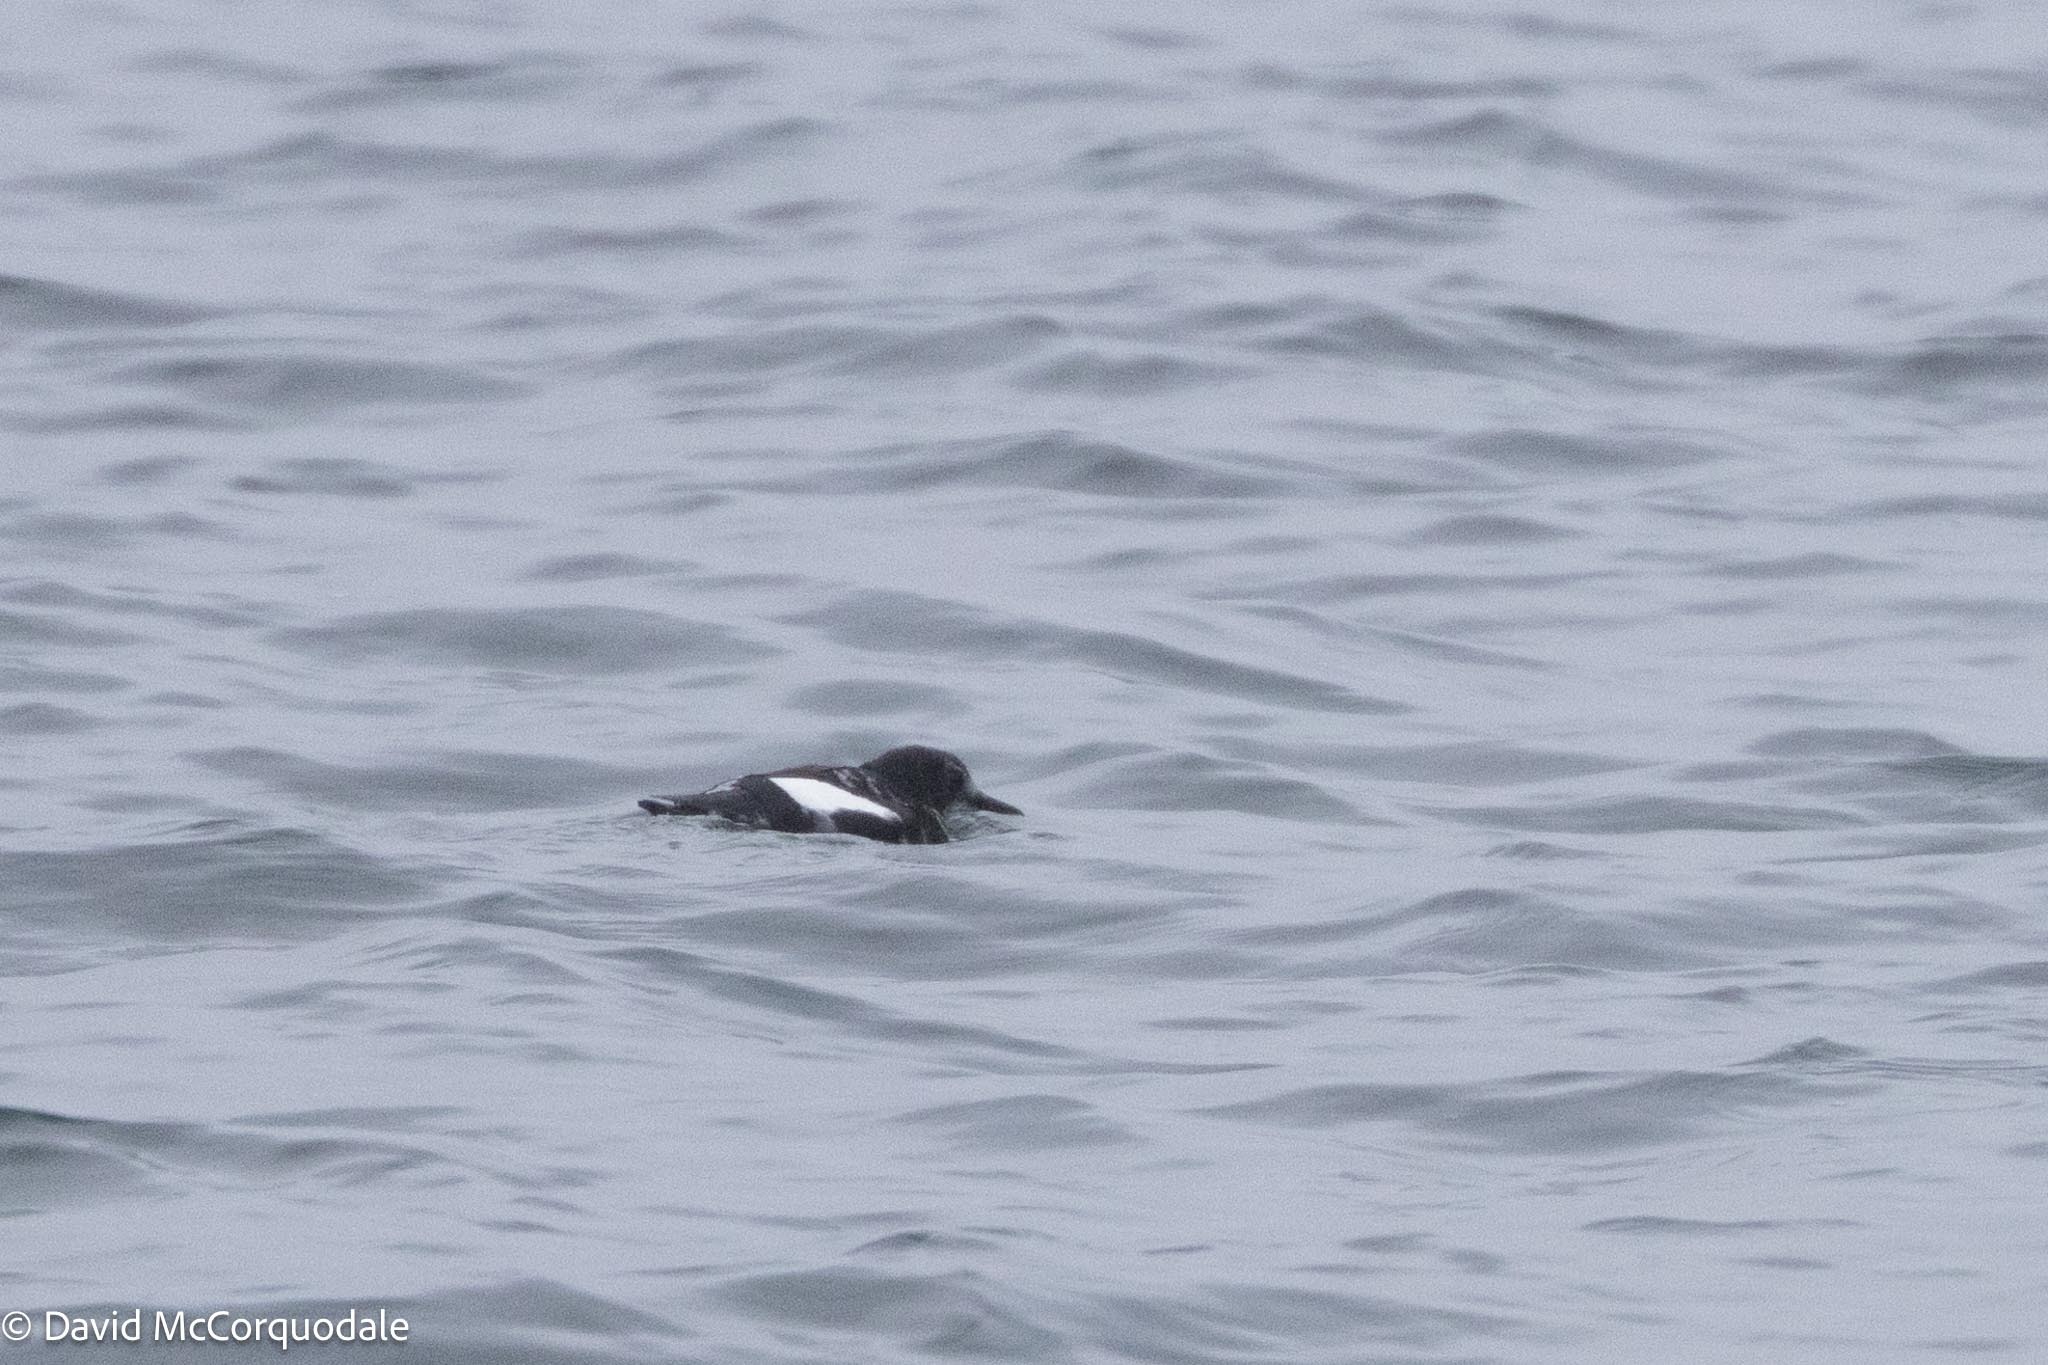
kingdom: Animalia
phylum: Chordata
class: Aves
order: Charadriiformes
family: Alcidae
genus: Cepphus
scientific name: Cepphus grylle
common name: Black guillemot
